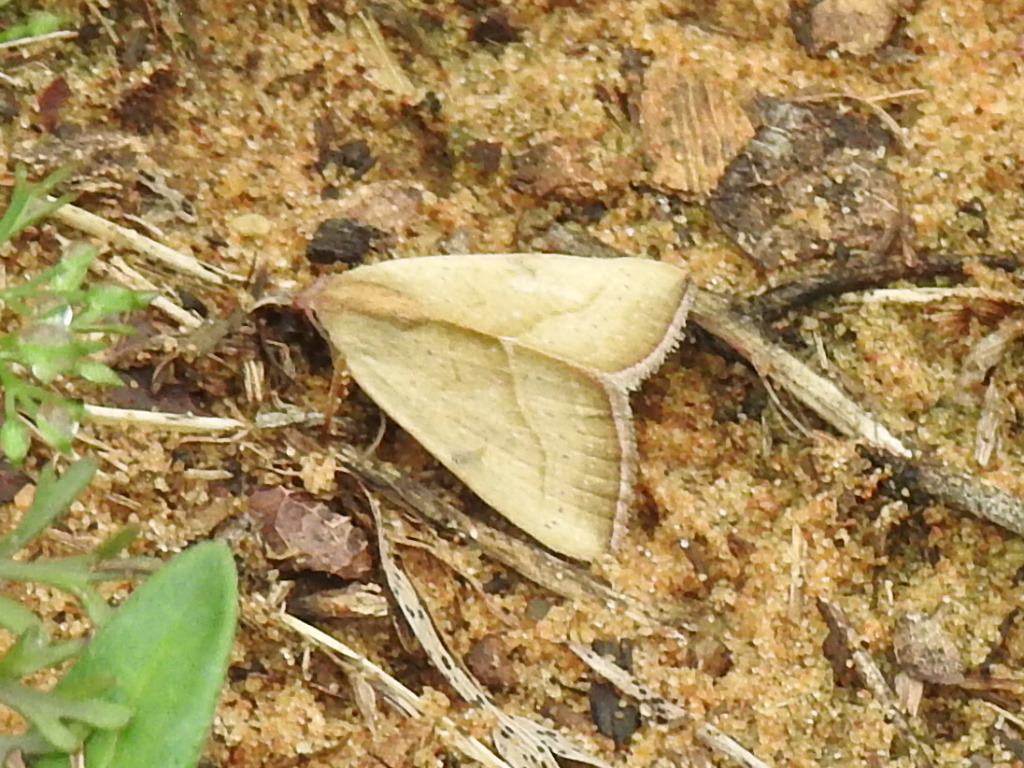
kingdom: Animalia
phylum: Arthropoda
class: Insecta
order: Lepidoptera
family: Noctuidae
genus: Galgula
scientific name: Galgula partita
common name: Wedgeling
